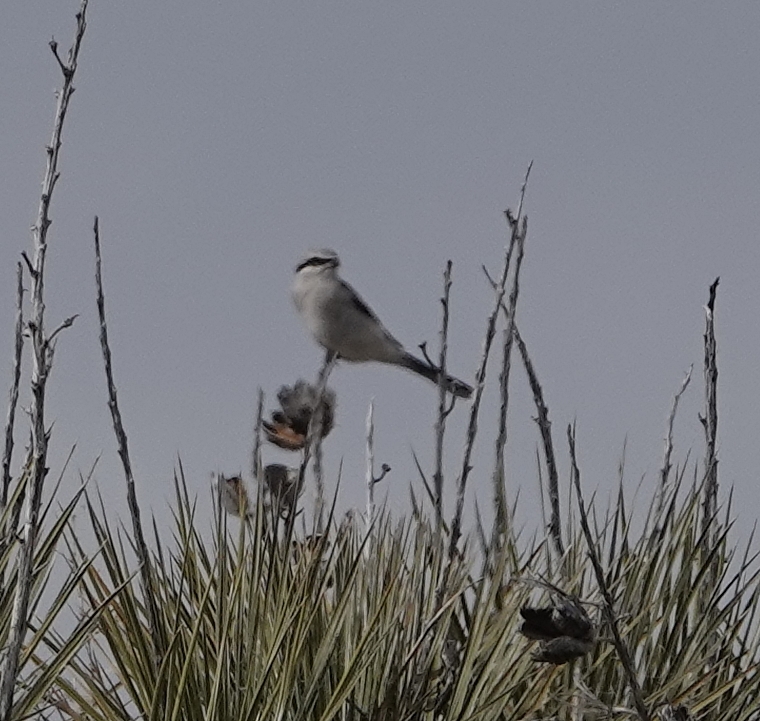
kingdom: Animalia
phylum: Chordata
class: Aves
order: Passeriformes
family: Laniidae
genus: Lanius
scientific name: Lanius borealis
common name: Northern shrike
